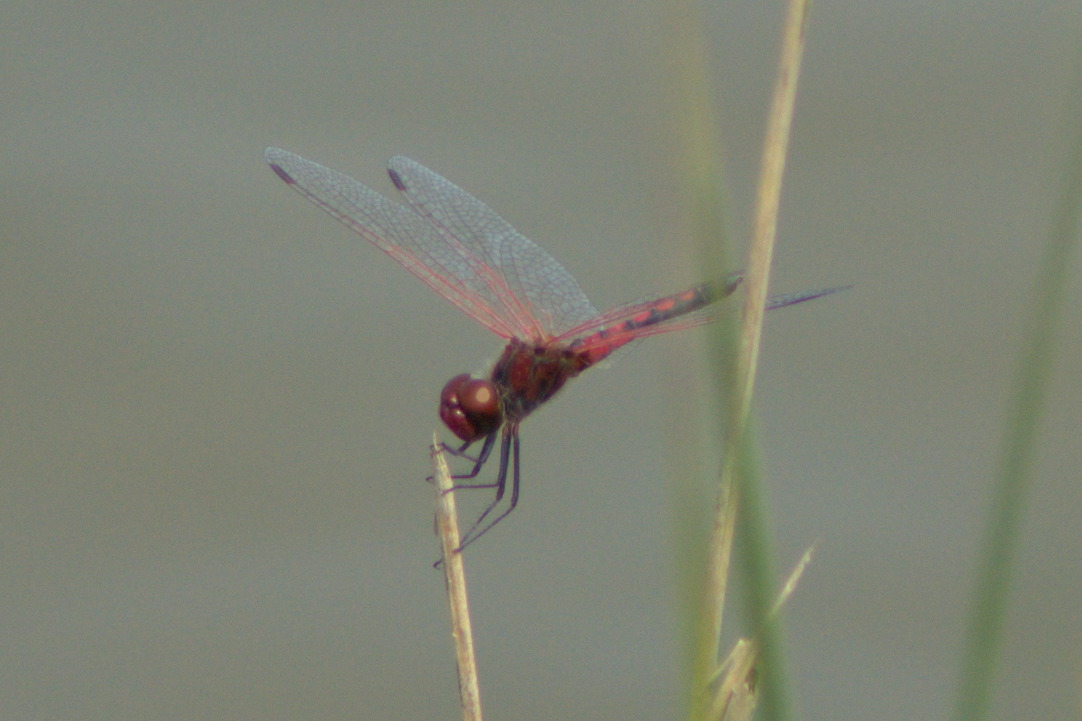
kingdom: Animalia
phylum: Arthropoda
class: Insecta
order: Odonata
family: Libellulidae
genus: Celithemis
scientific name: Celithemis bertha
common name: Red-veined pennant
